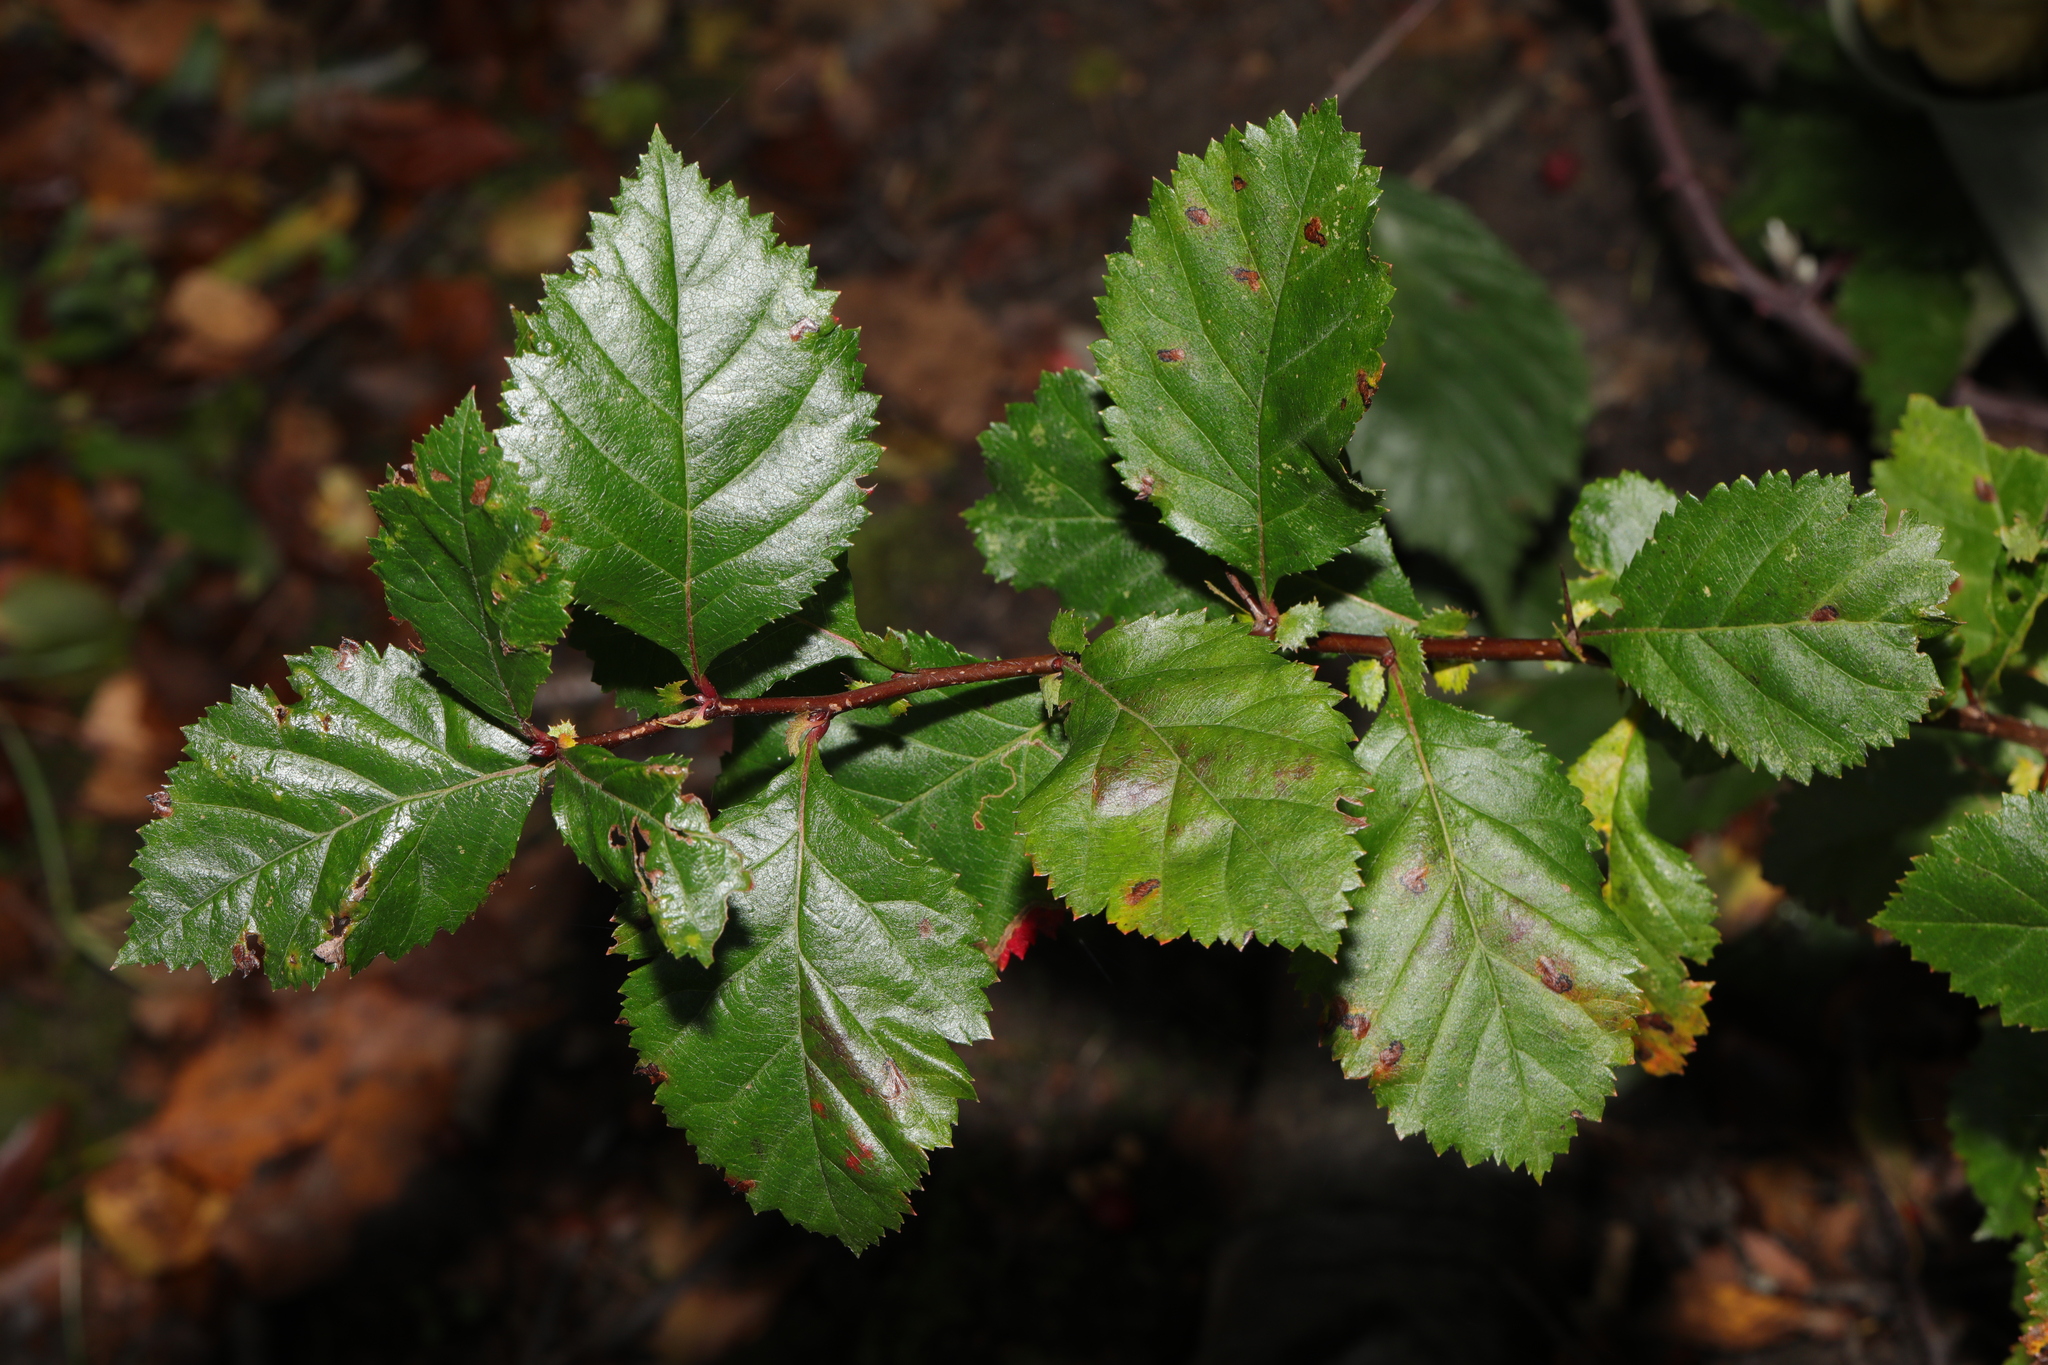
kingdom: Plantae
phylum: Tracheophyta
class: Magnoliopsida
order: Rosales
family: Ulmaceae
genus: Ulmus
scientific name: Ulmus minor
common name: Small-leaved elm
